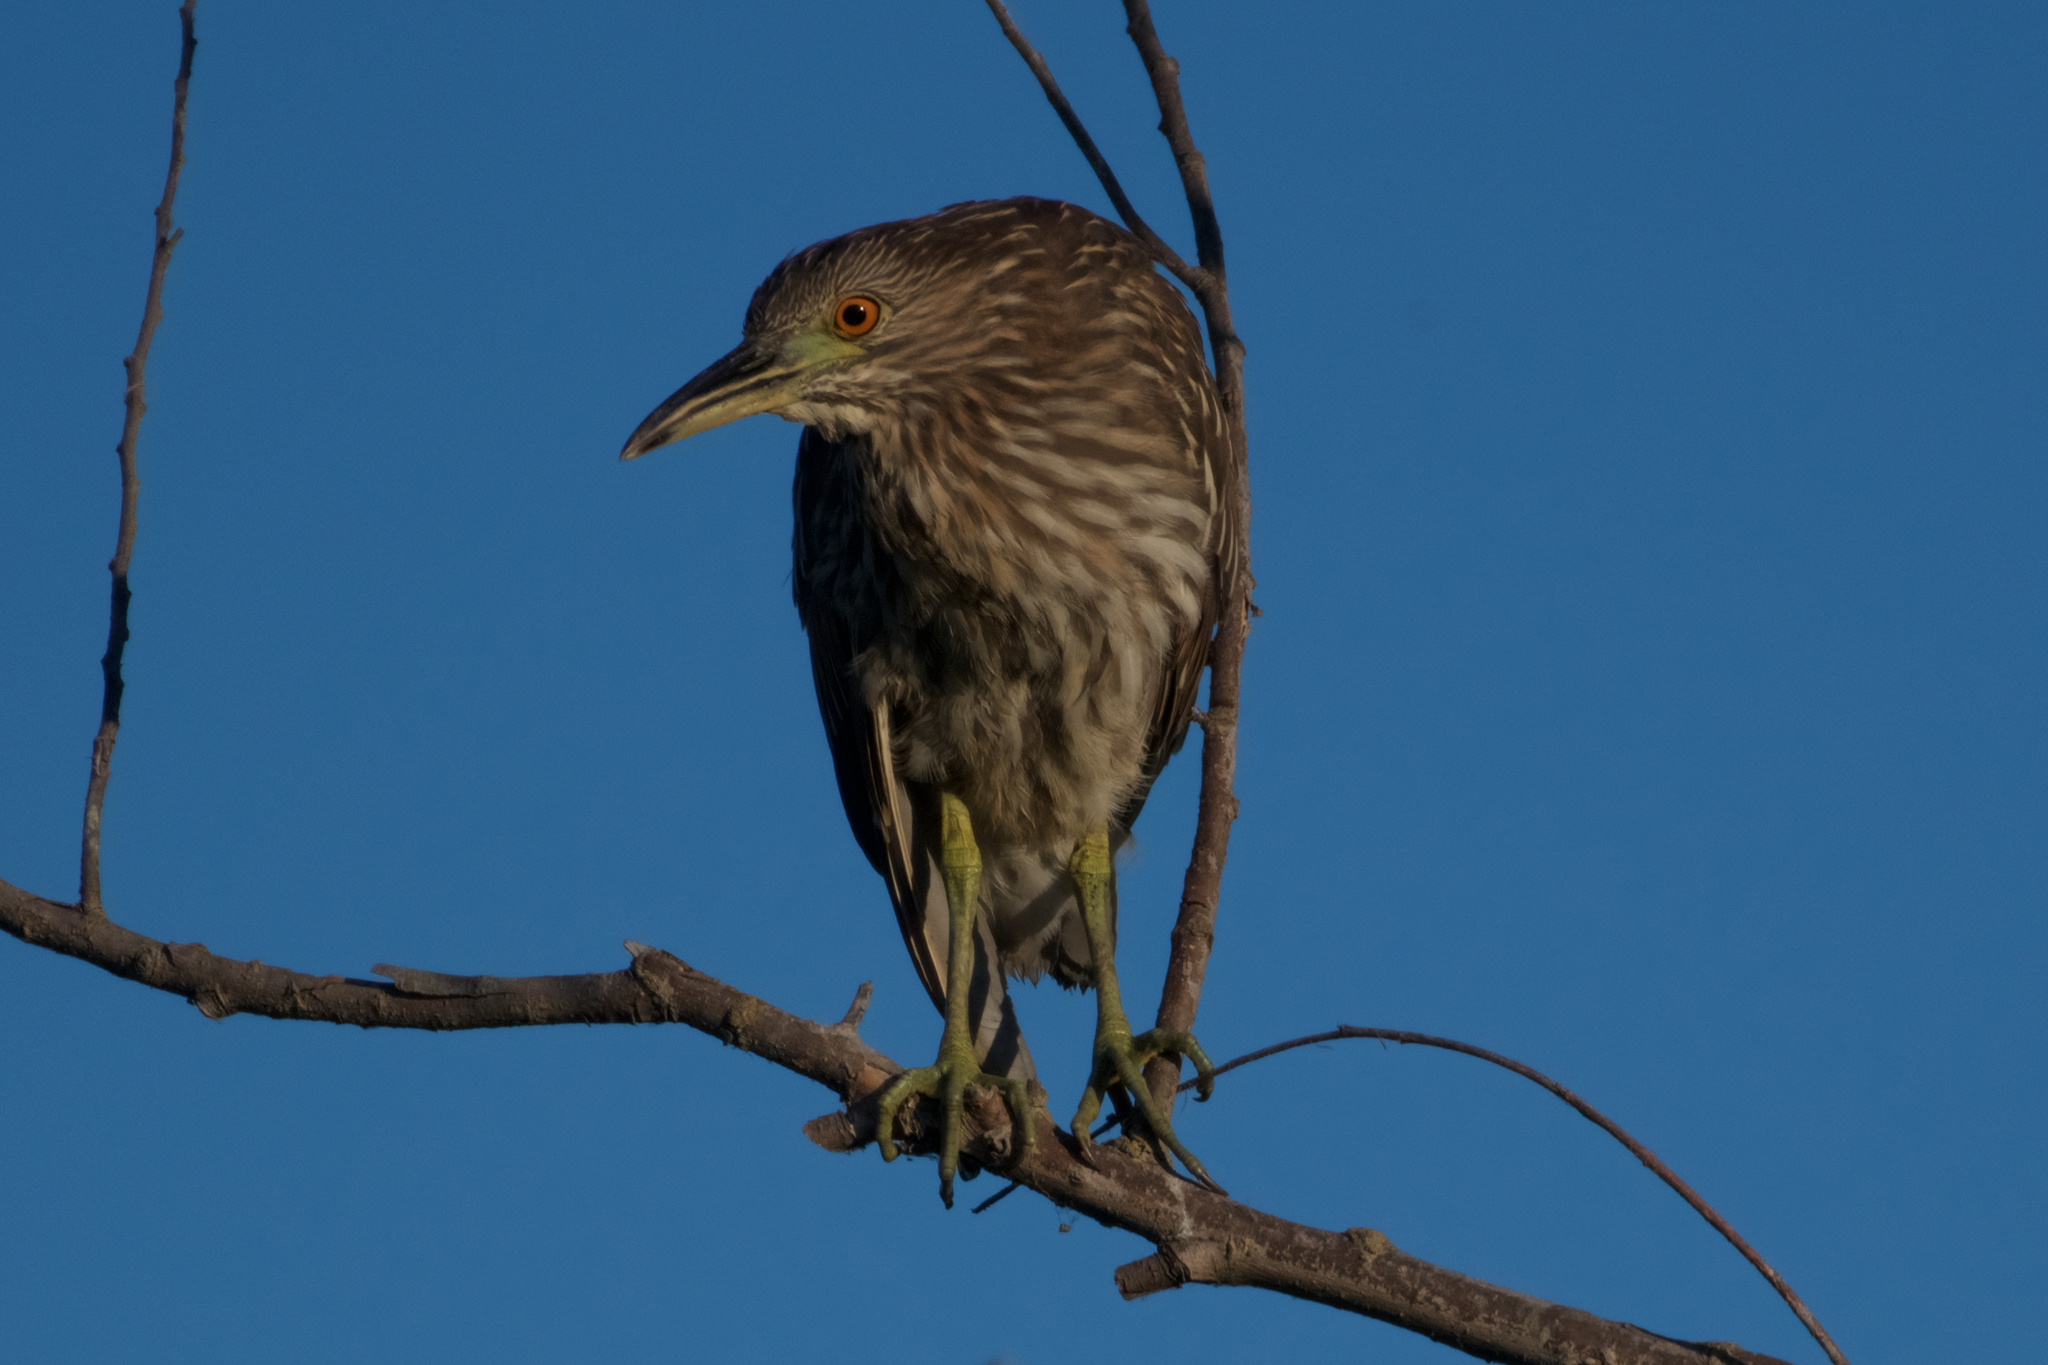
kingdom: Animalia
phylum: Chordata
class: Aves
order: Pelecaniformes
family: Ardeidae
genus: Nycticorax
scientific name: Nycticorax nycticorax
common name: Black-crowned night heron
